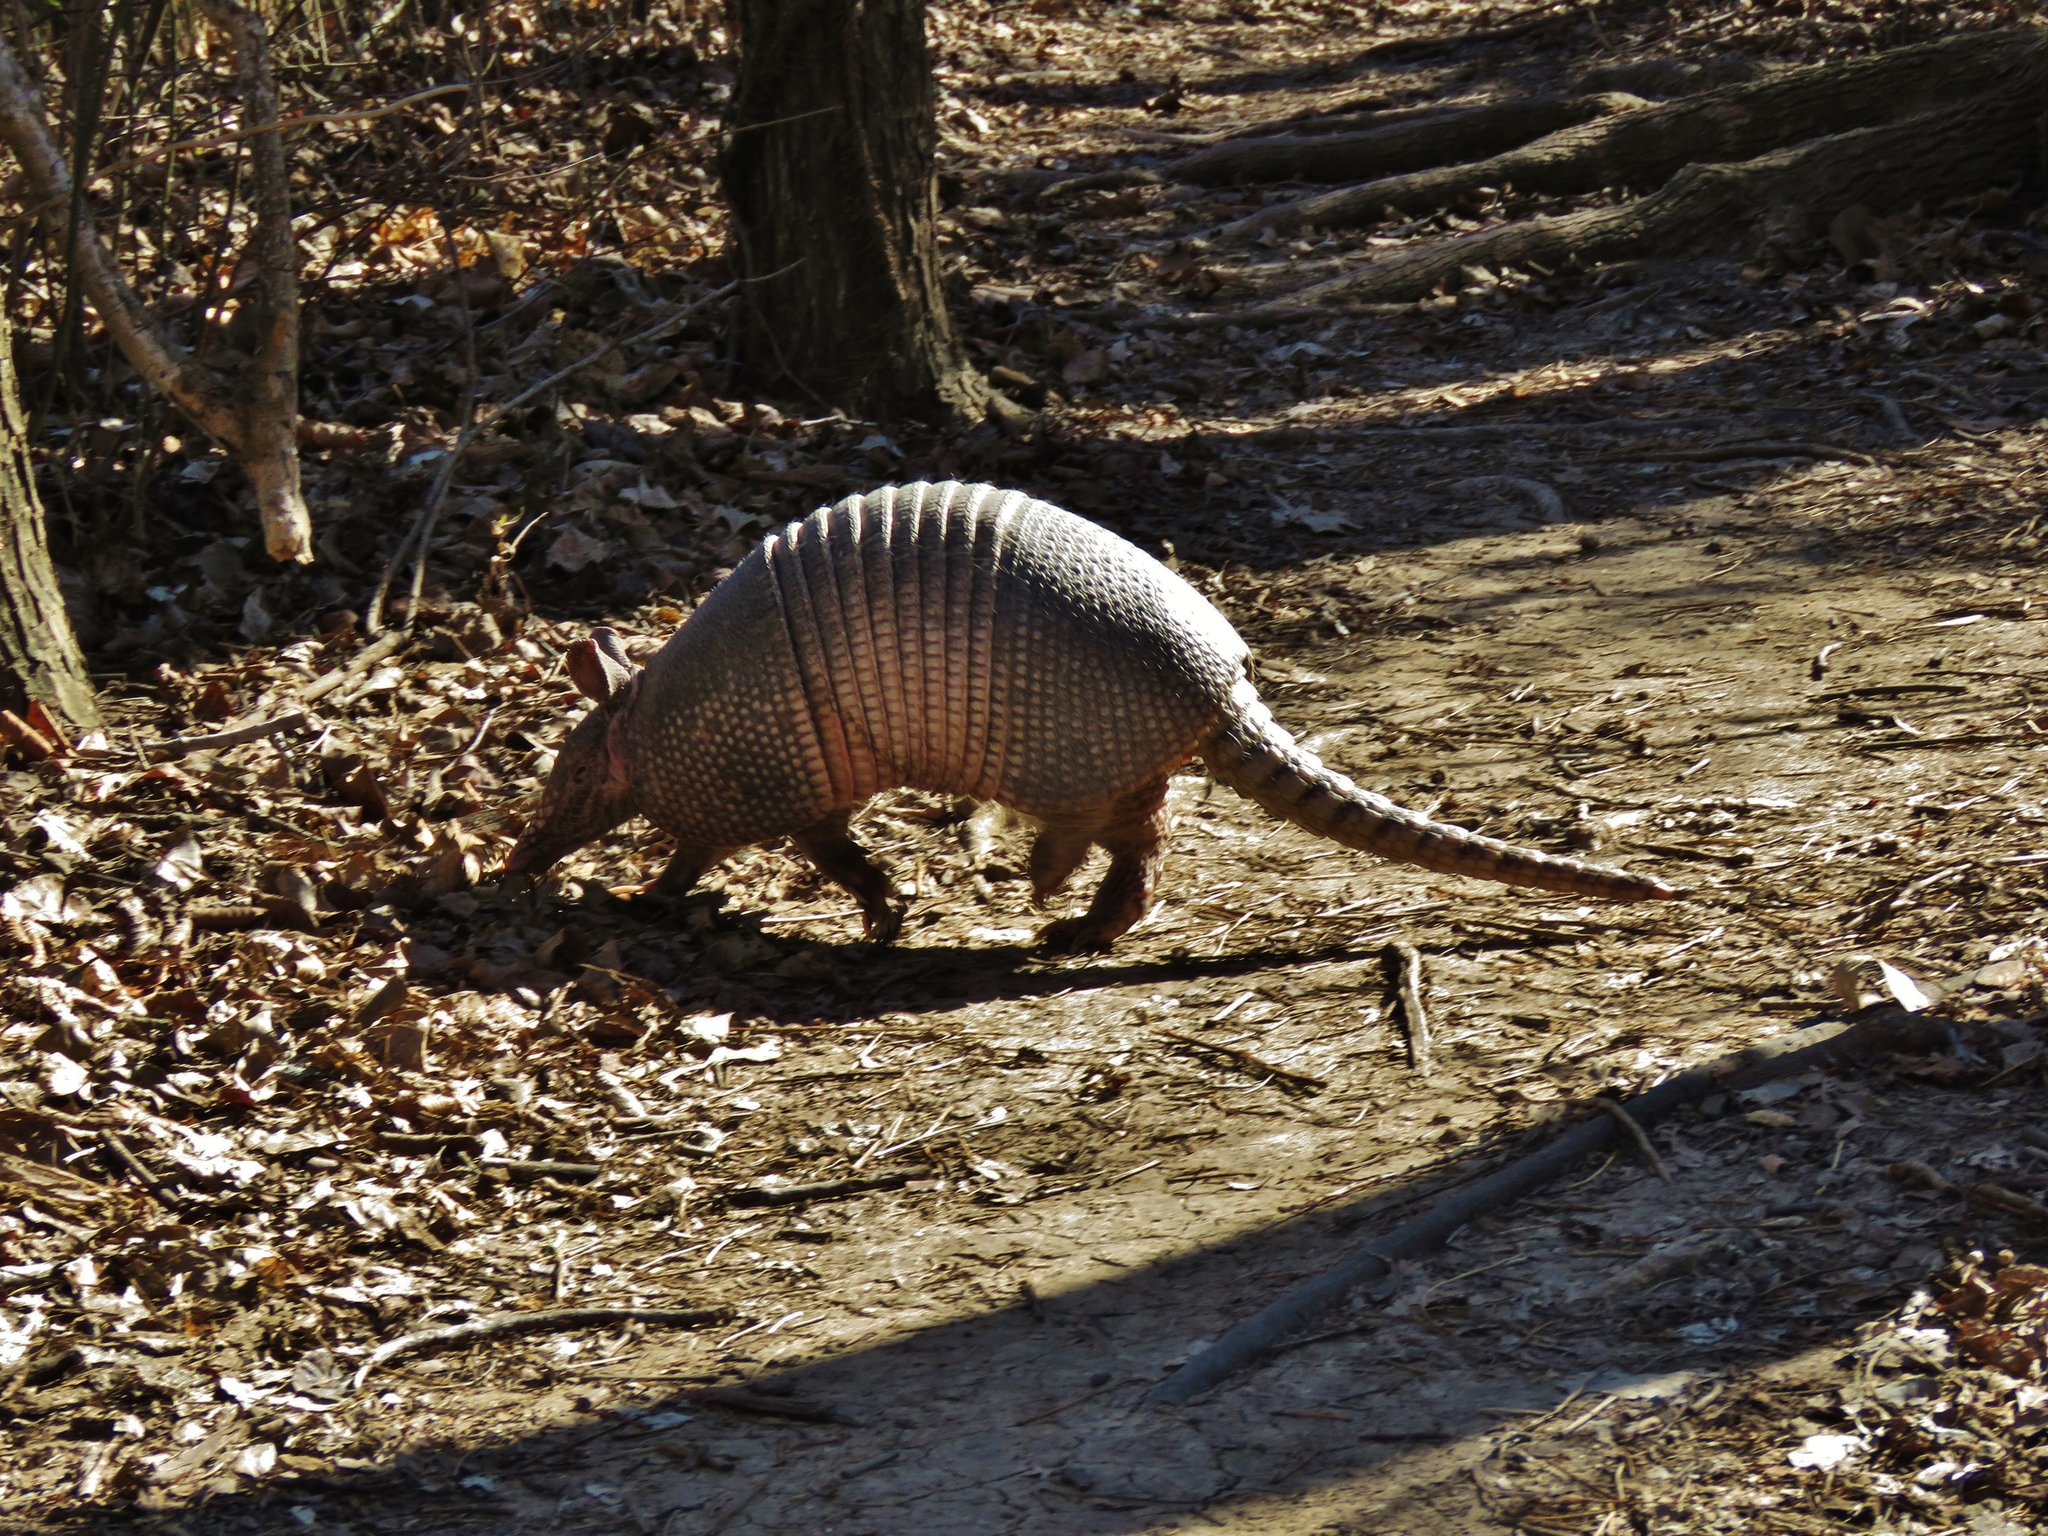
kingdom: Animalia
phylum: Chordata
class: Mammalia
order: Cingulata
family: Dasypodidae
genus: Dasypus
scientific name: Dasypus novemcinctus
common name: Nine-banded armadillo
